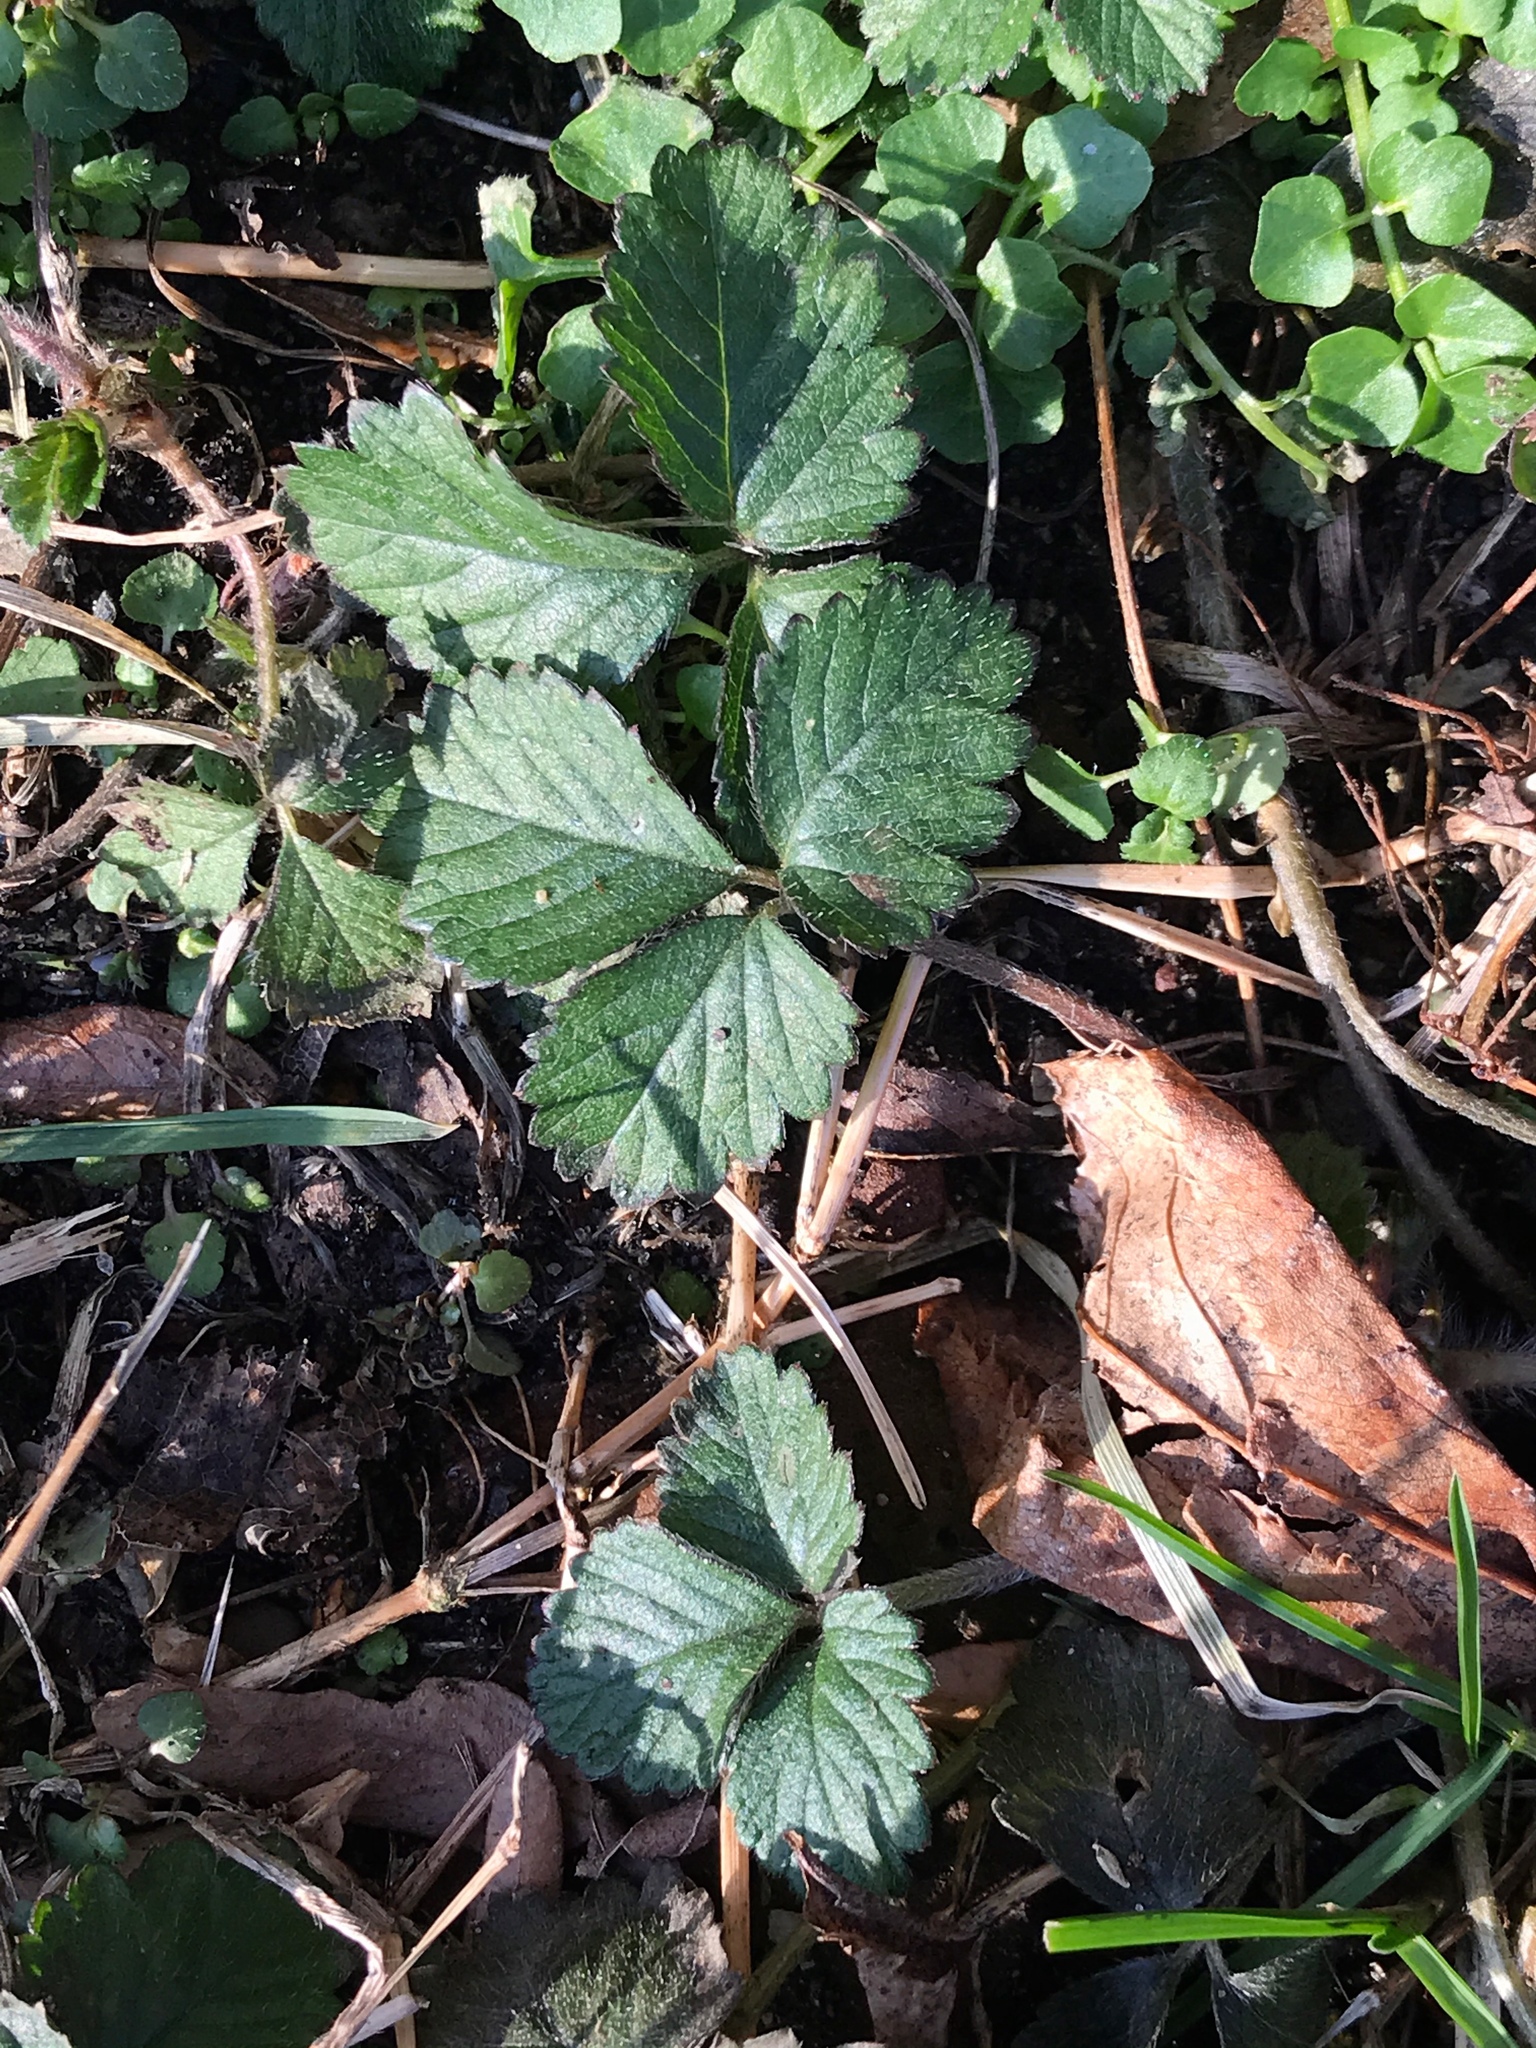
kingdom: Plantae
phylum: Tracheophyta
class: Magnoliopsida
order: Rosales
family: Rosaceae
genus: Potentilla
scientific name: Potentilla indica
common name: Yellow-flowered strawberry
